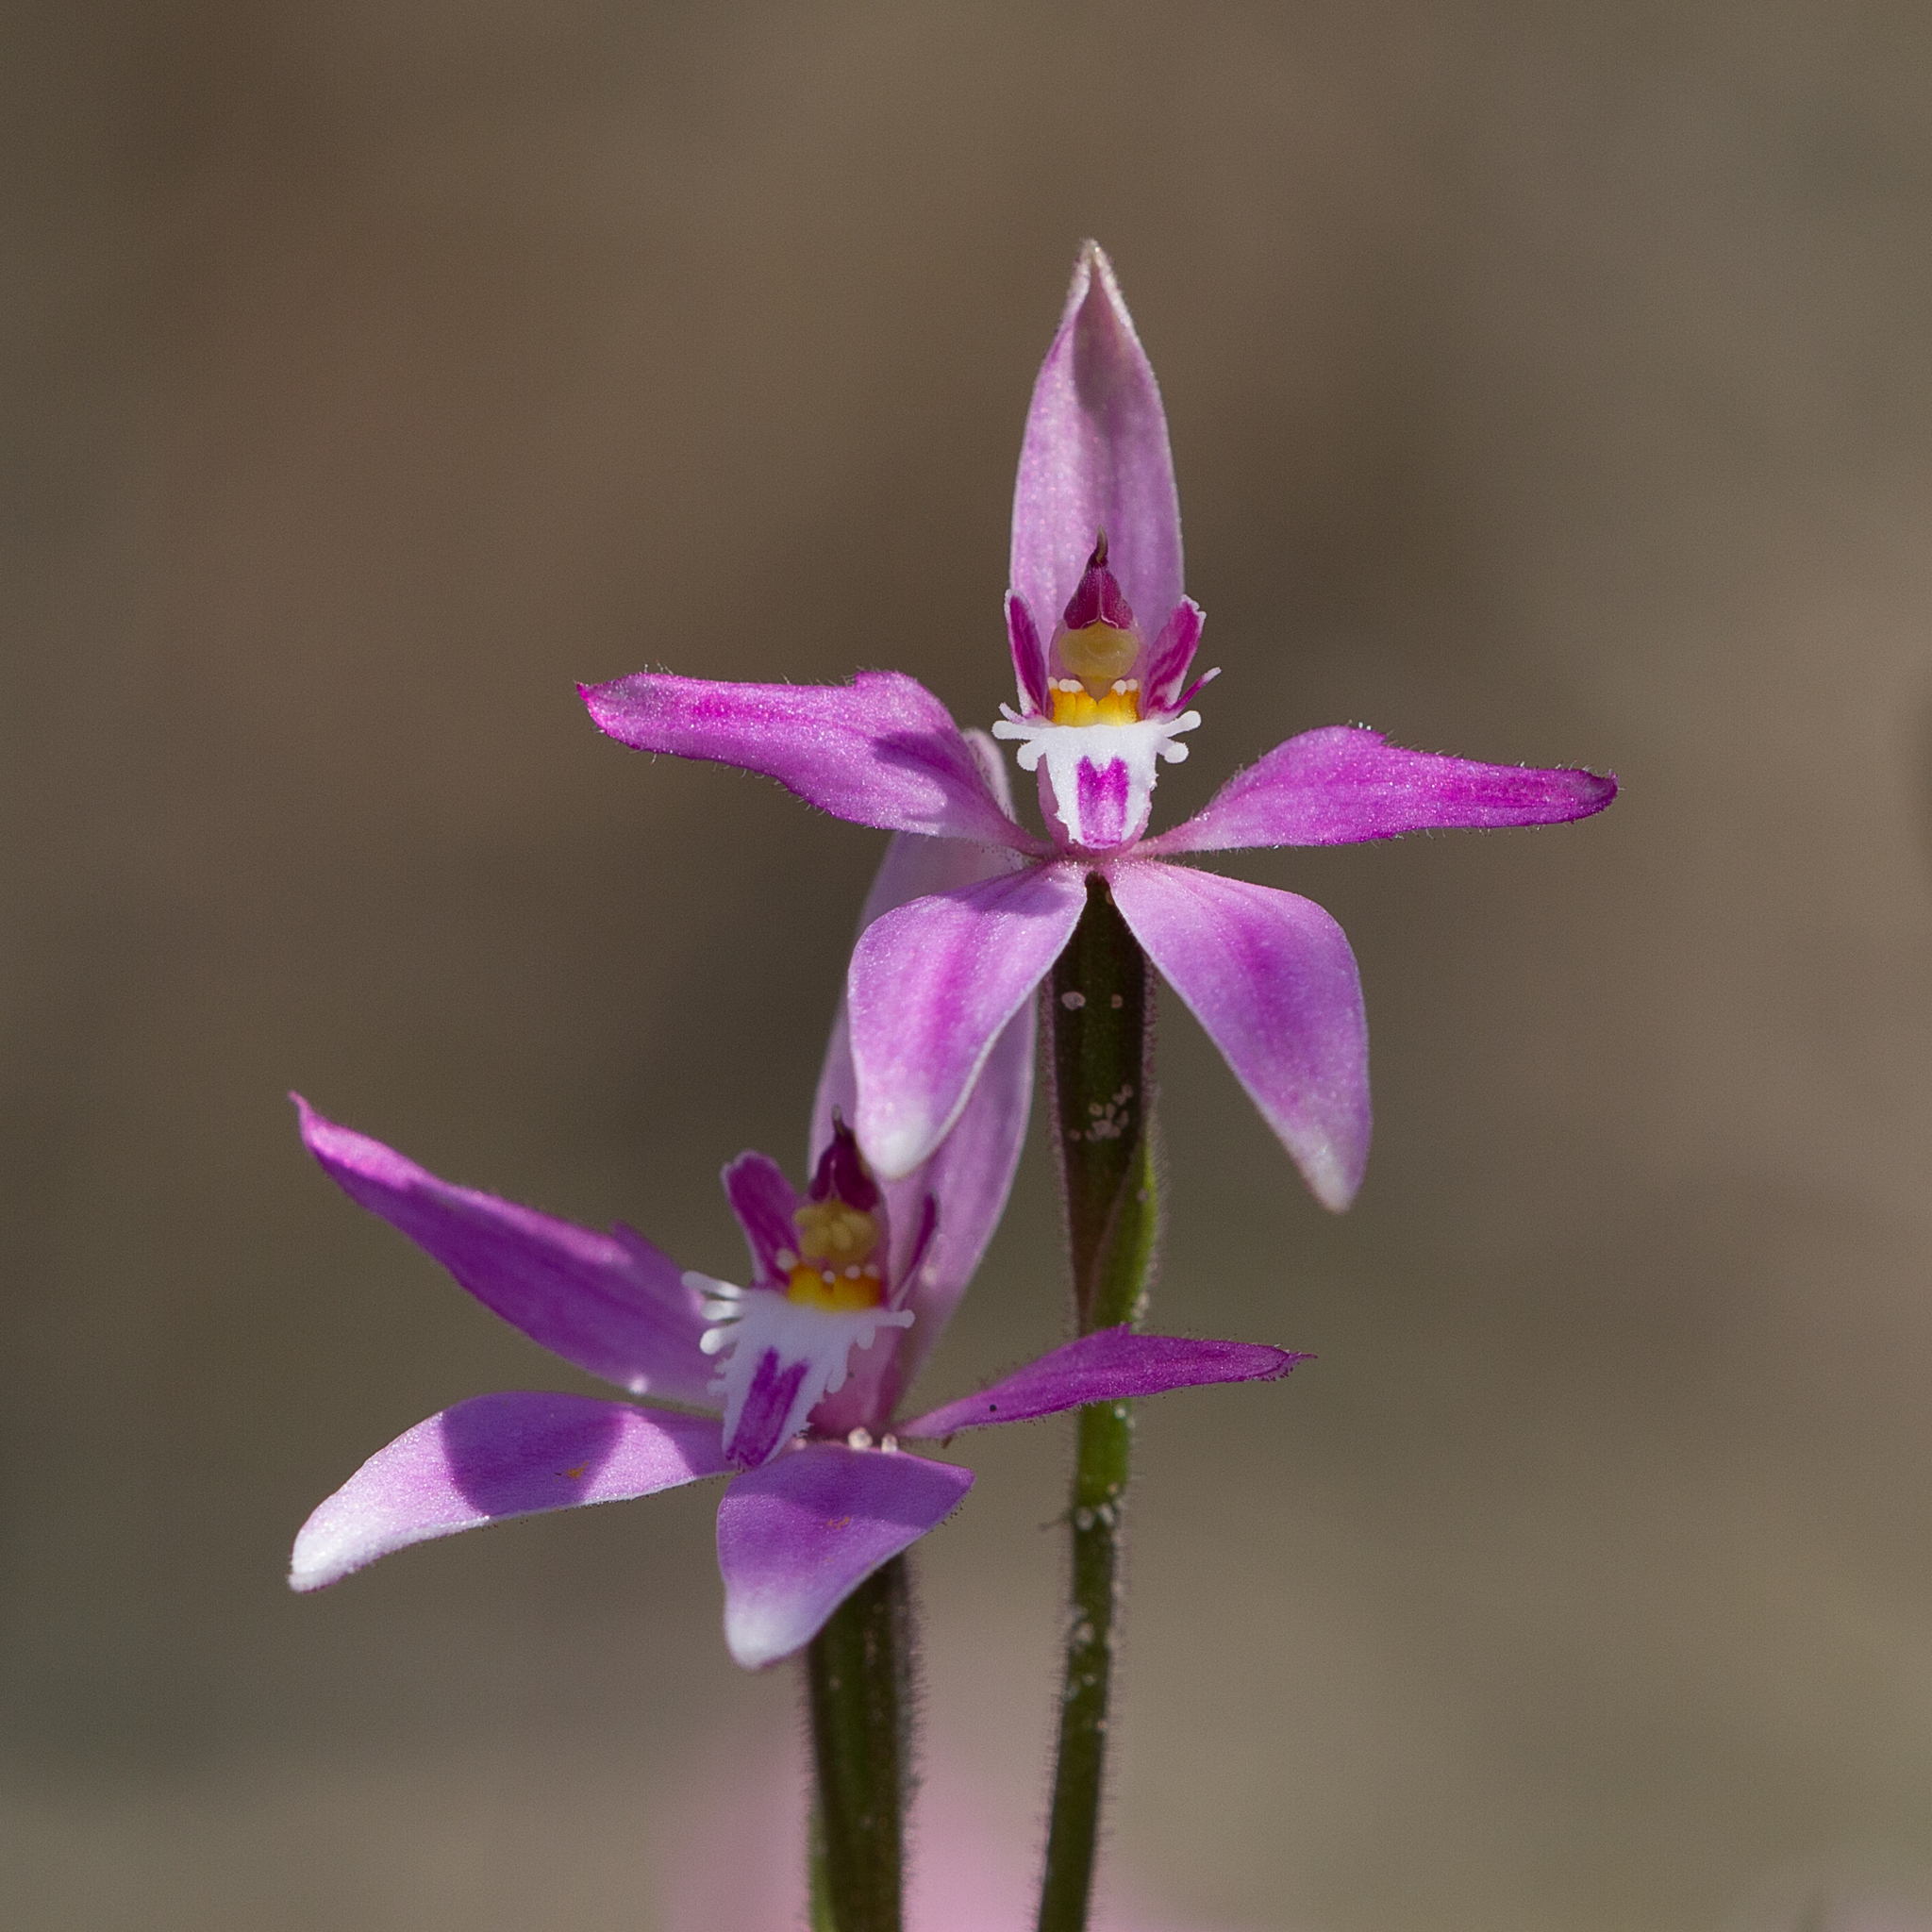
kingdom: Plantae
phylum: Tracheophyta
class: Liliopsida
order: Asparagales
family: Orchidaceae
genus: Caladenia
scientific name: Caladenia latifolia
